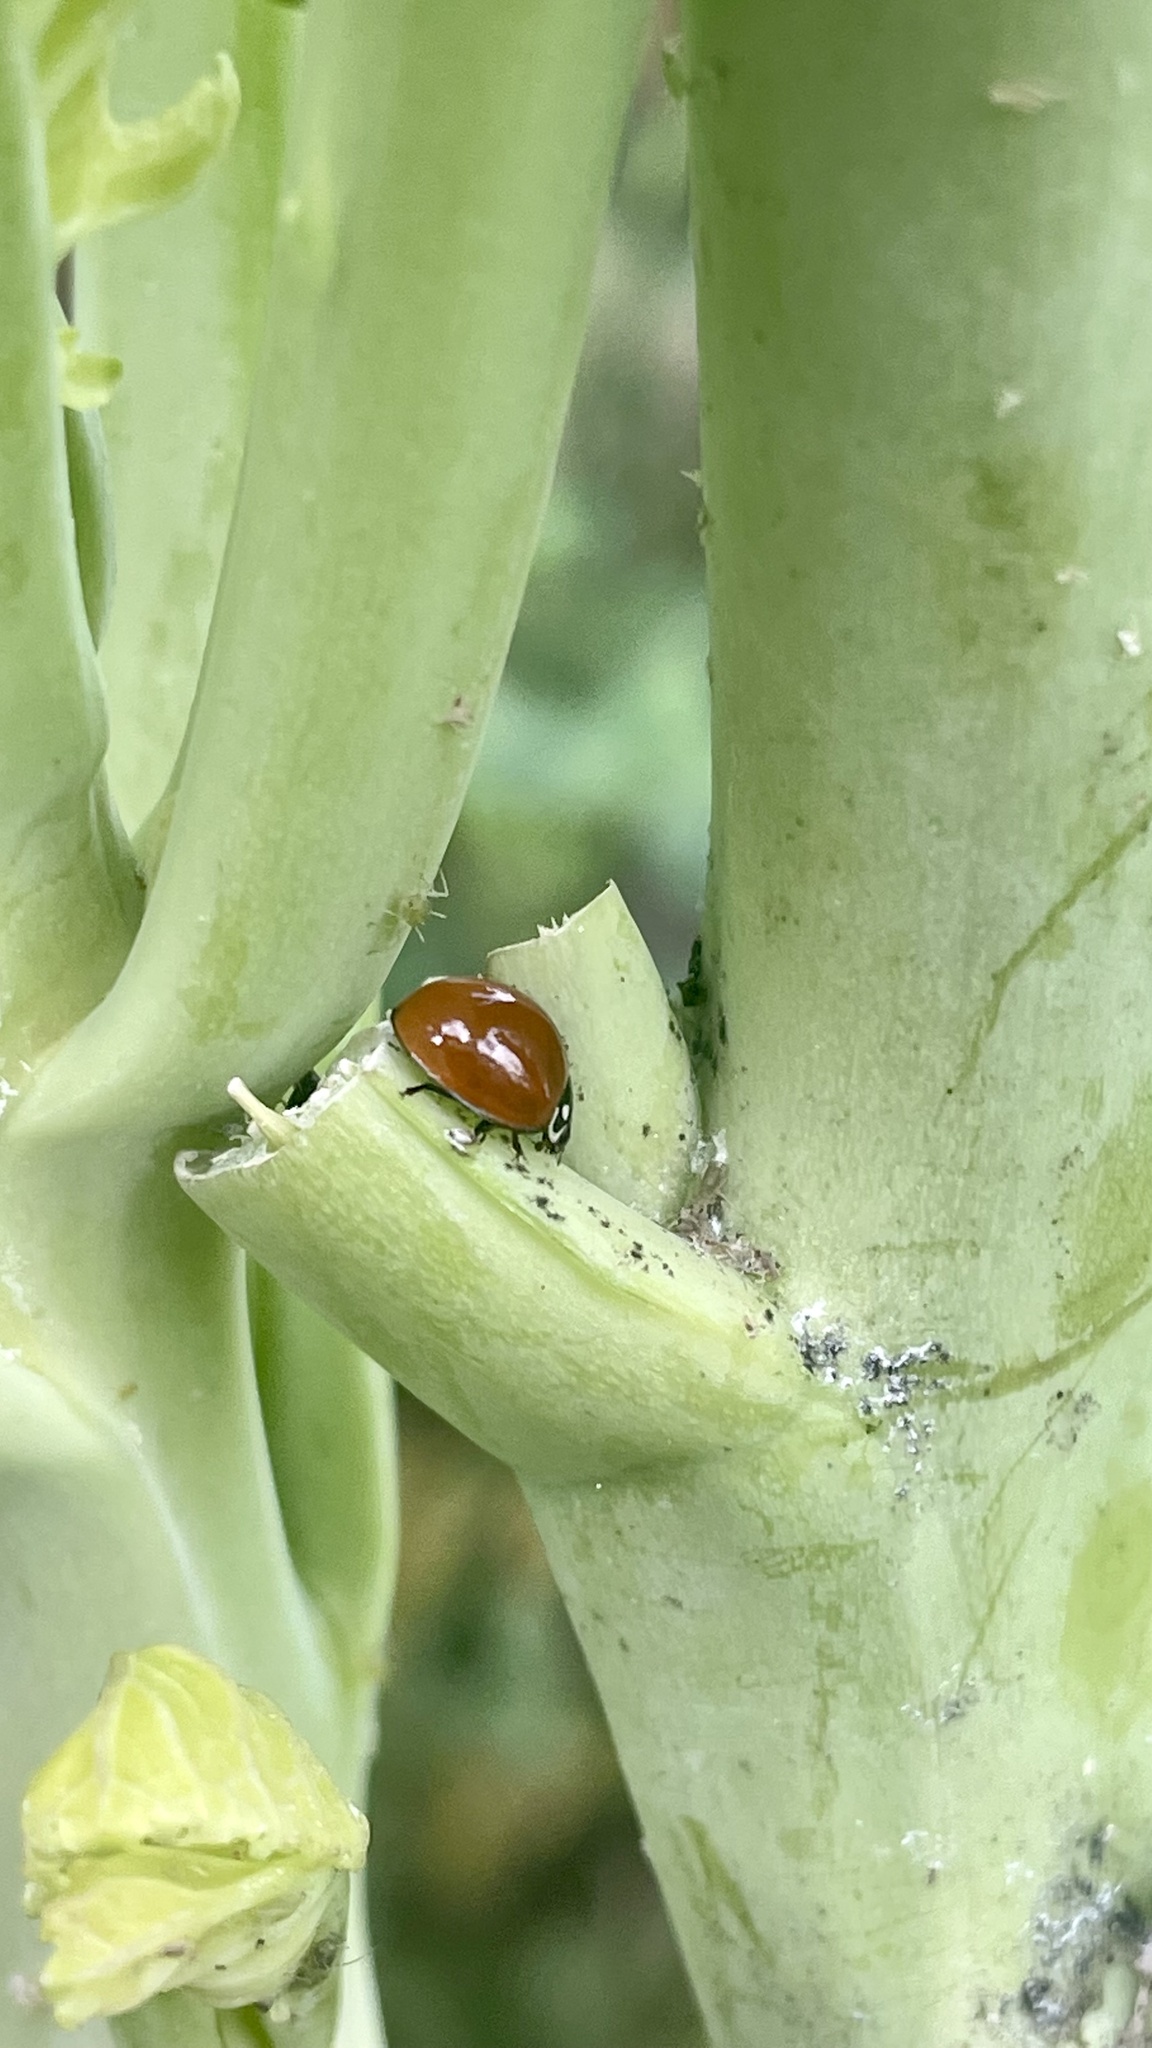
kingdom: Animalia
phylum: Arthropoda
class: Insecta
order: Coleoptera
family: Coccinellidae
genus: Cycloneda
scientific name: Cycloneda sanguinea
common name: Ladybird beetle
